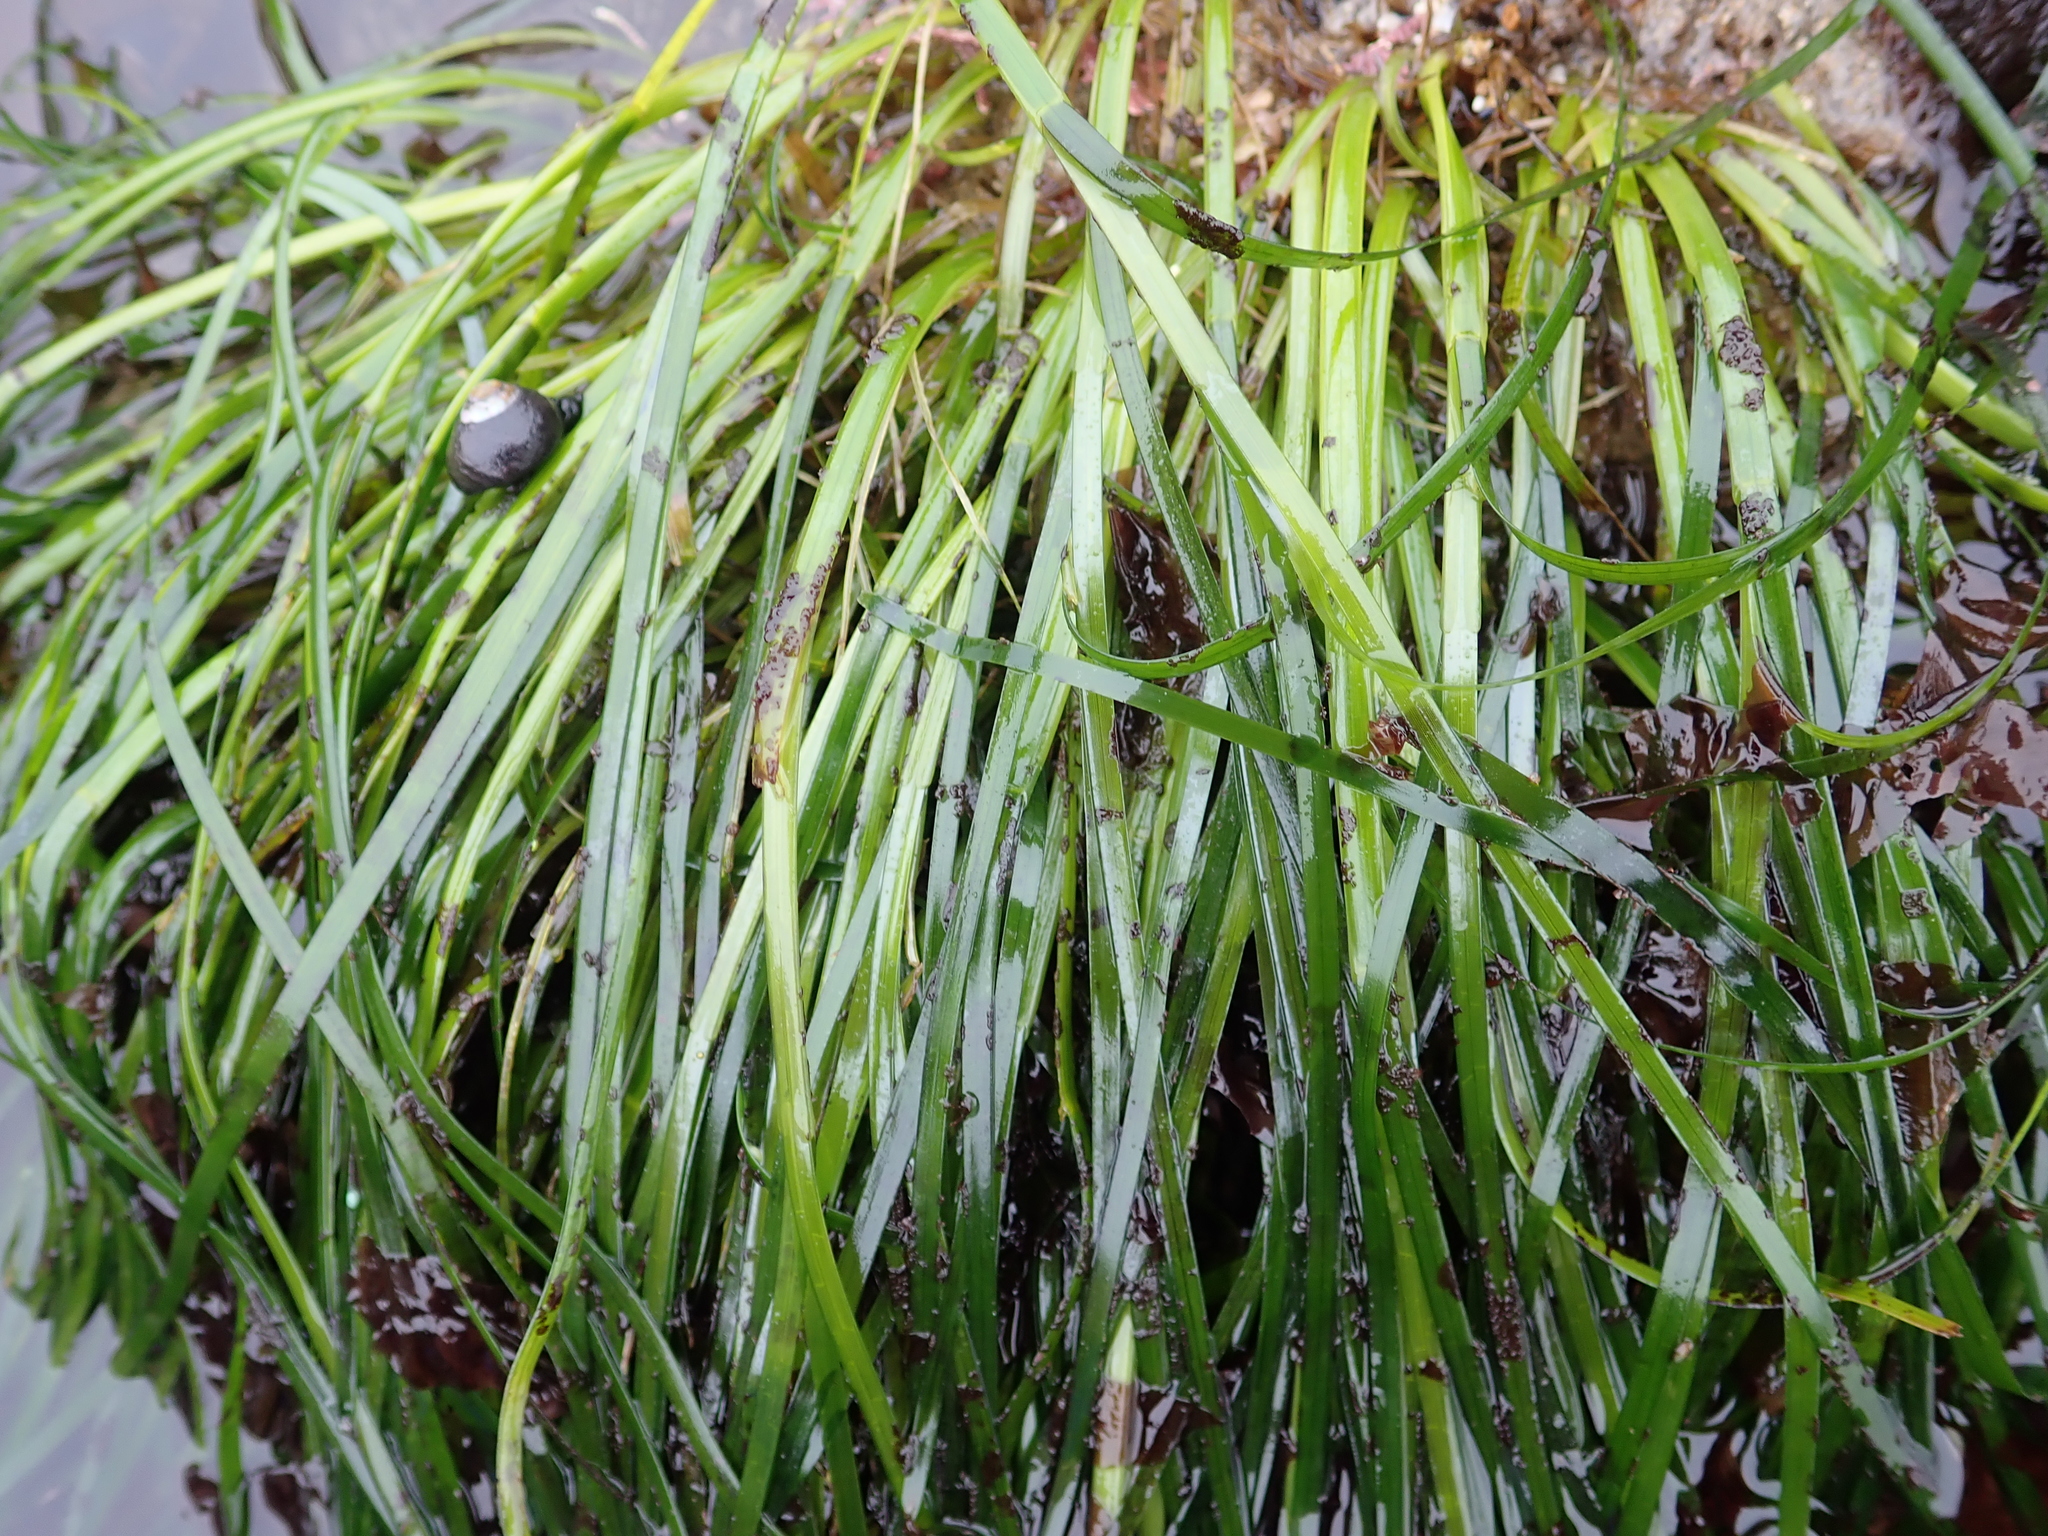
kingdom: Plantae
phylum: Tracheophyta
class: Liliopsida
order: Alismatales
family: Zosteraceae
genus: Phyllospadix
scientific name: Phyllospadix scouleri
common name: Species code: ps
